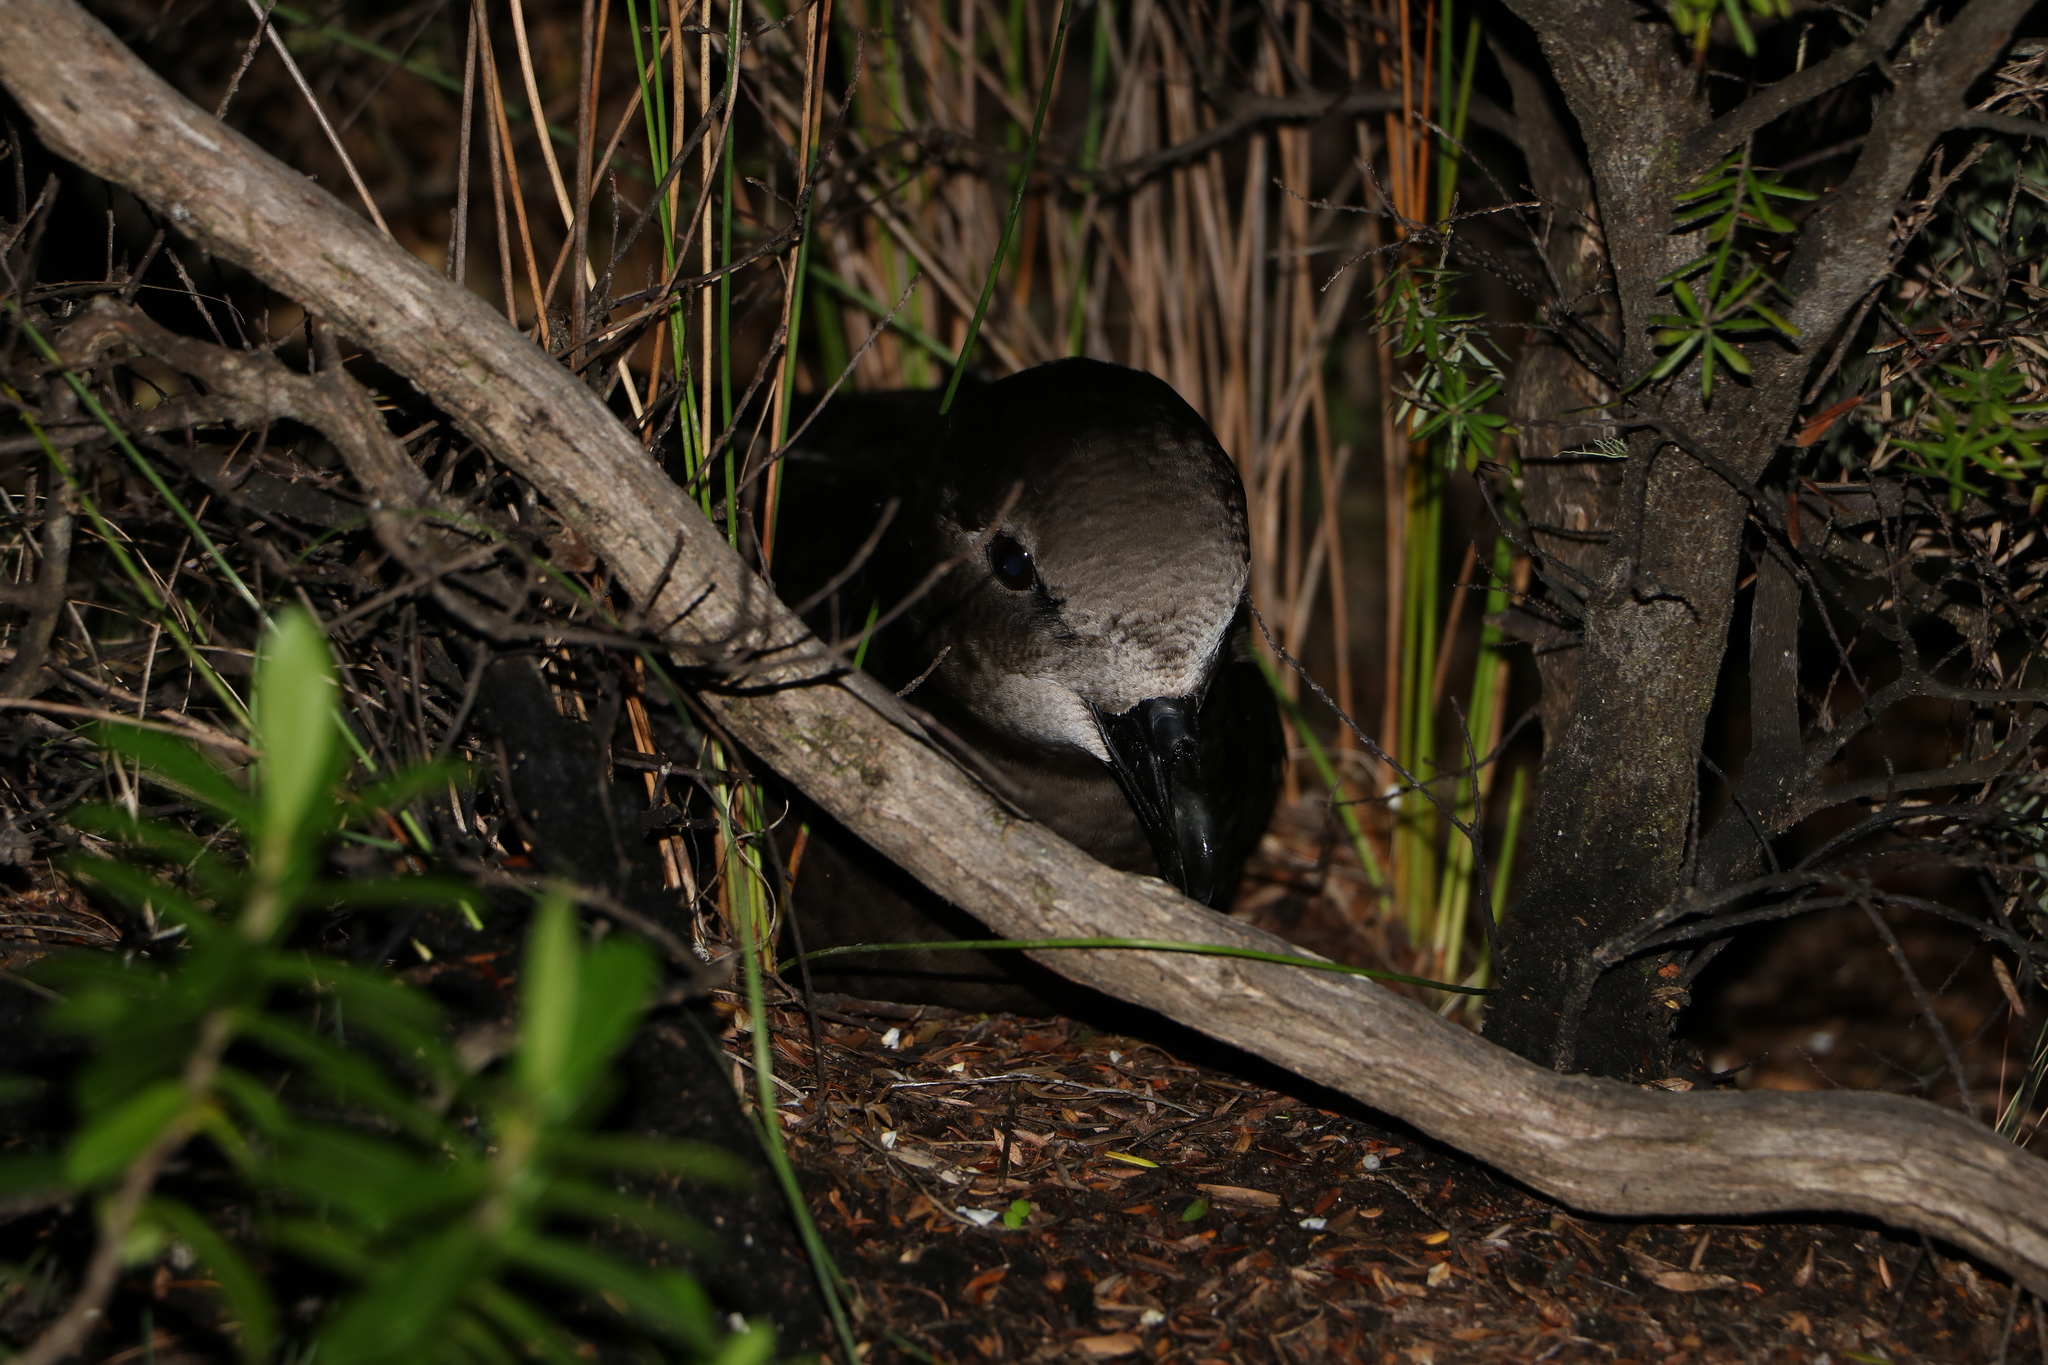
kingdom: Animalia
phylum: Chordata
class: Aves
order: Procellariiformes
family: Procellariidae
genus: Pterodroma
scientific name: Pterodroma macroptera
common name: Great-winged petrel
